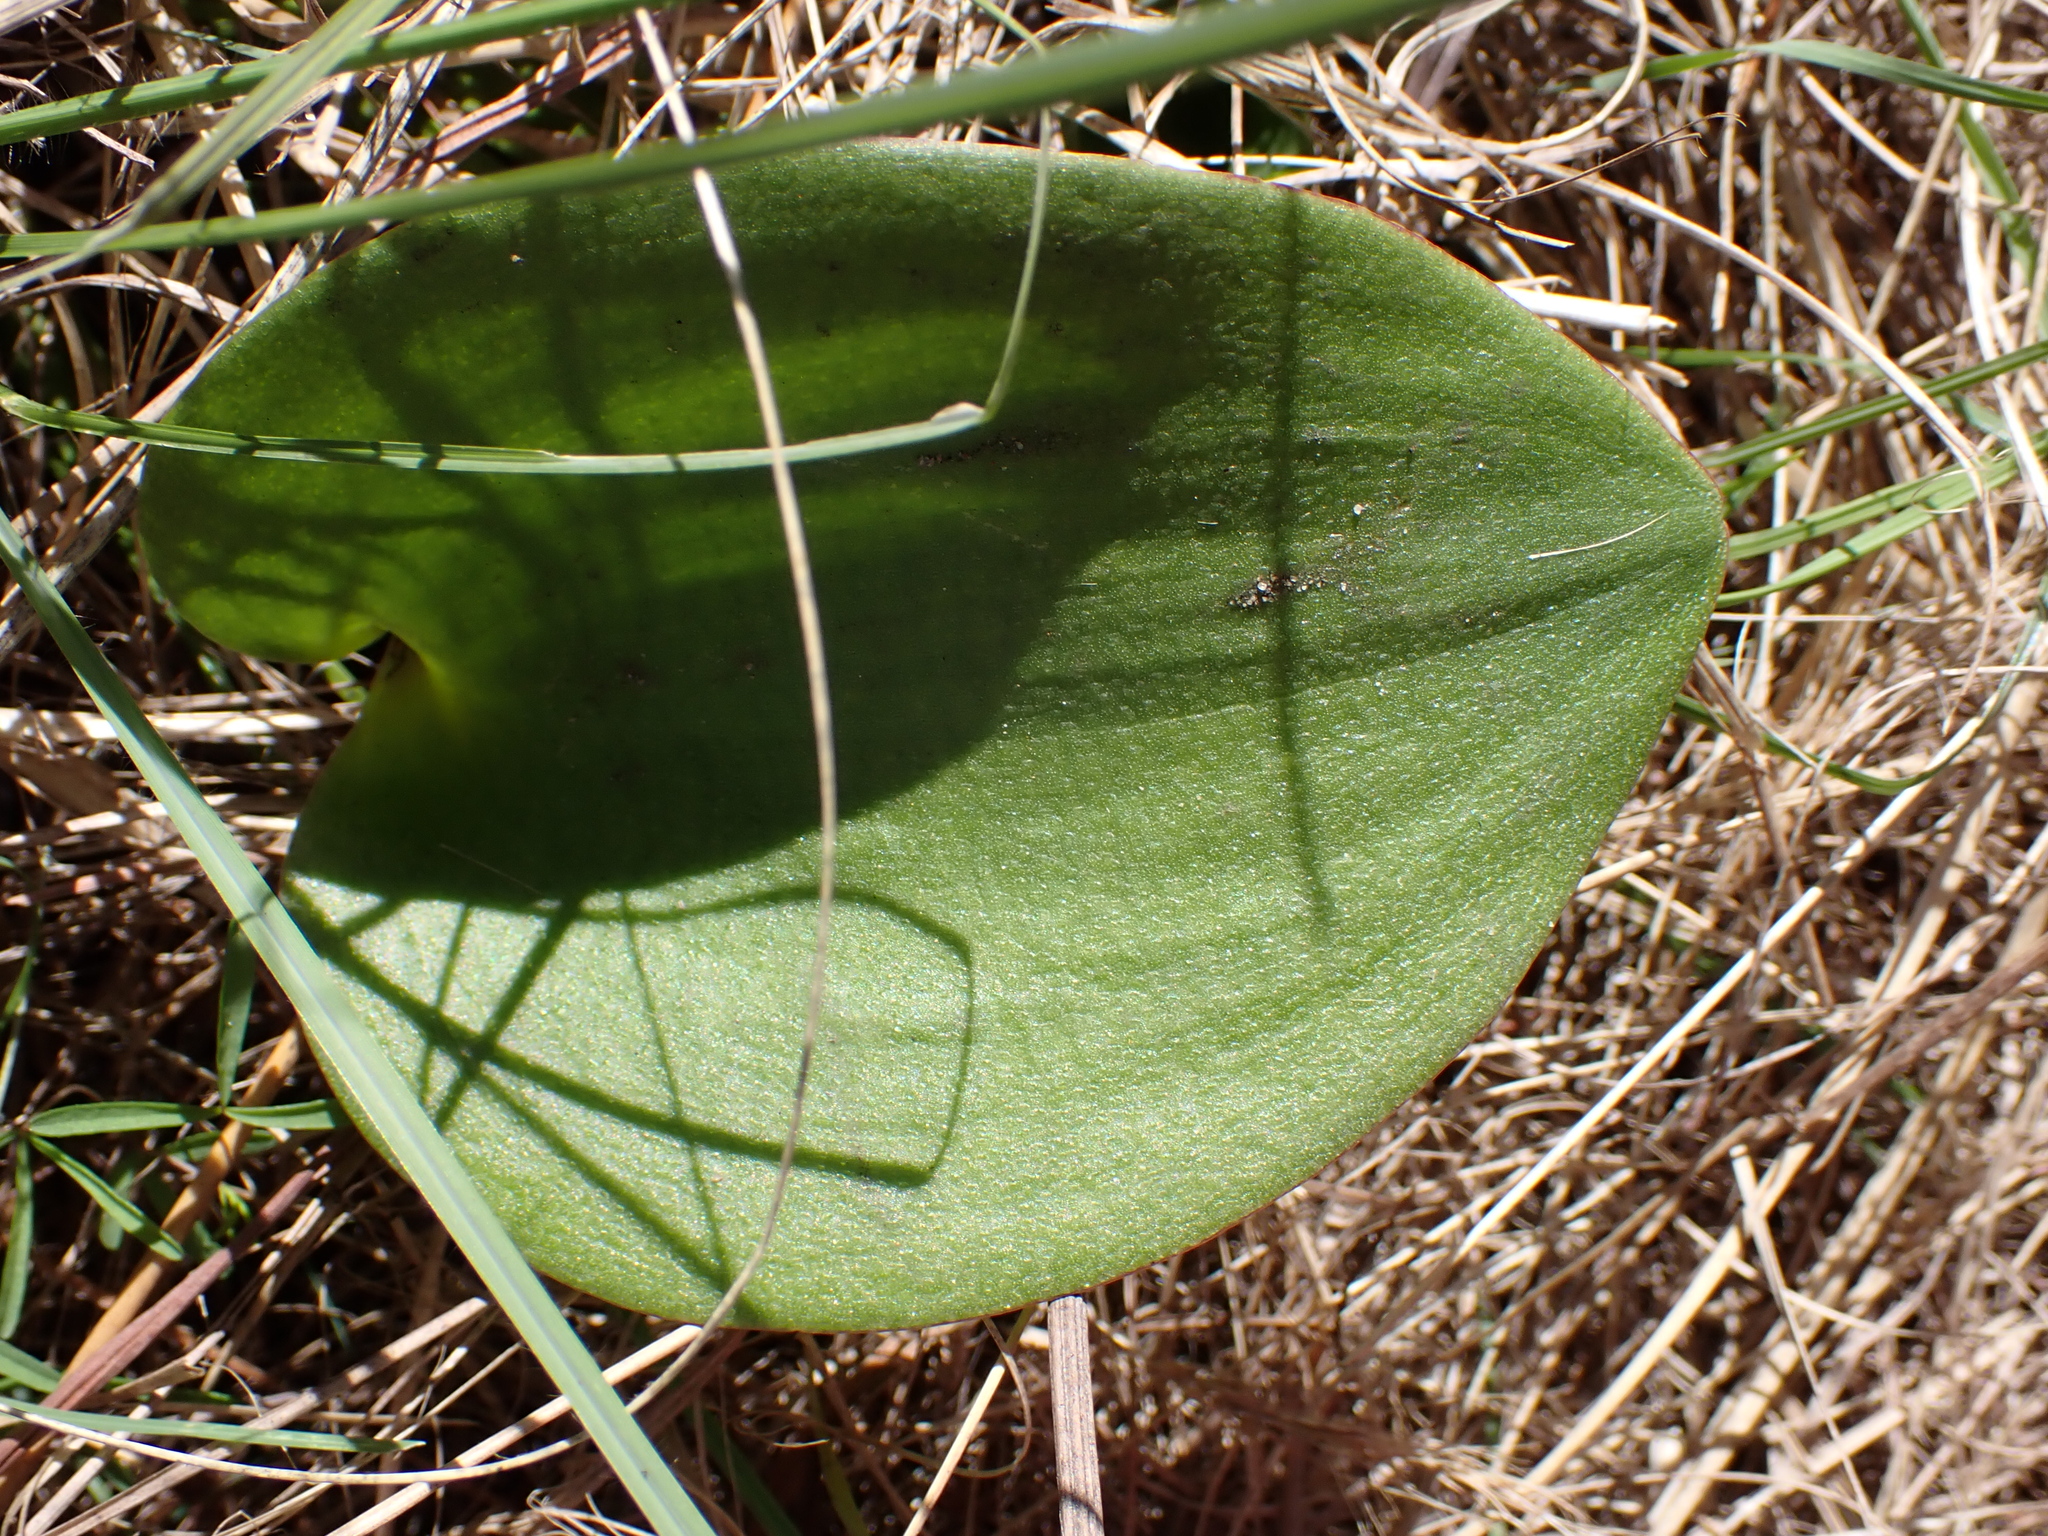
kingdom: Plantae
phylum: Tracheophyta
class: Liliopsida
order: Asparagales
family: Asparagaceae
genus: Eriospermum
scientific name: Eriospermum capense
